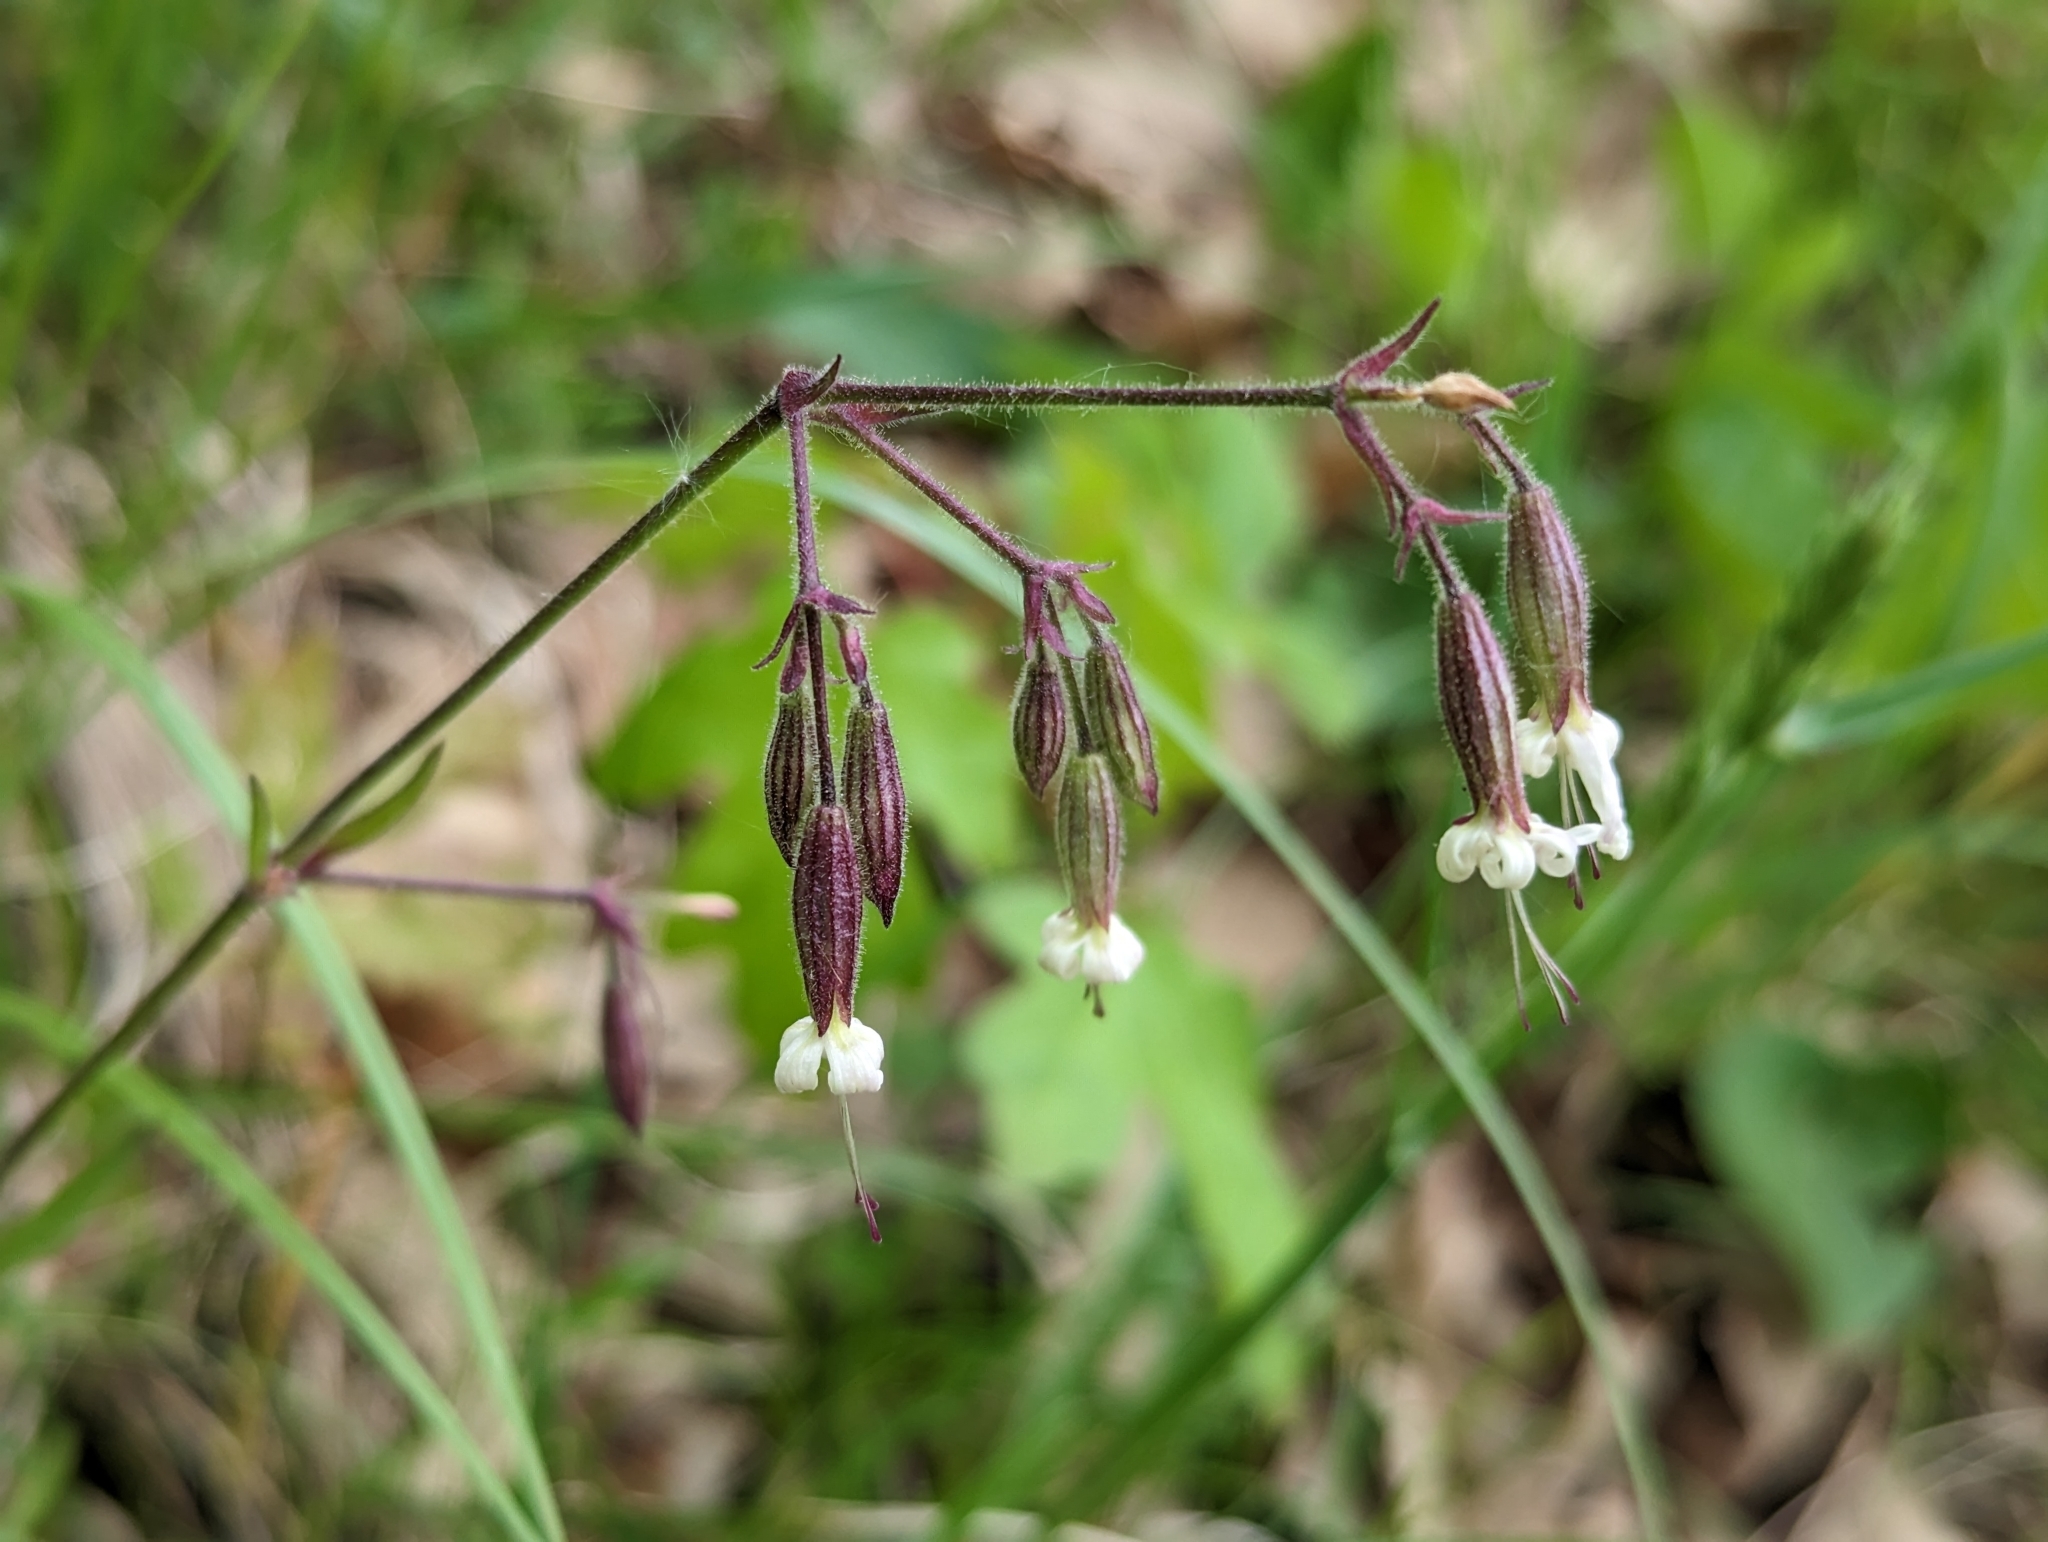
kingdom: Plantae
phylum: Tracheophyta
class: Magnoliopsida
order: Caryophyllales
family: Caryophyllaceae
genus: Silene
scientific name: Silene nutans
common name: Nottingham catchfly
